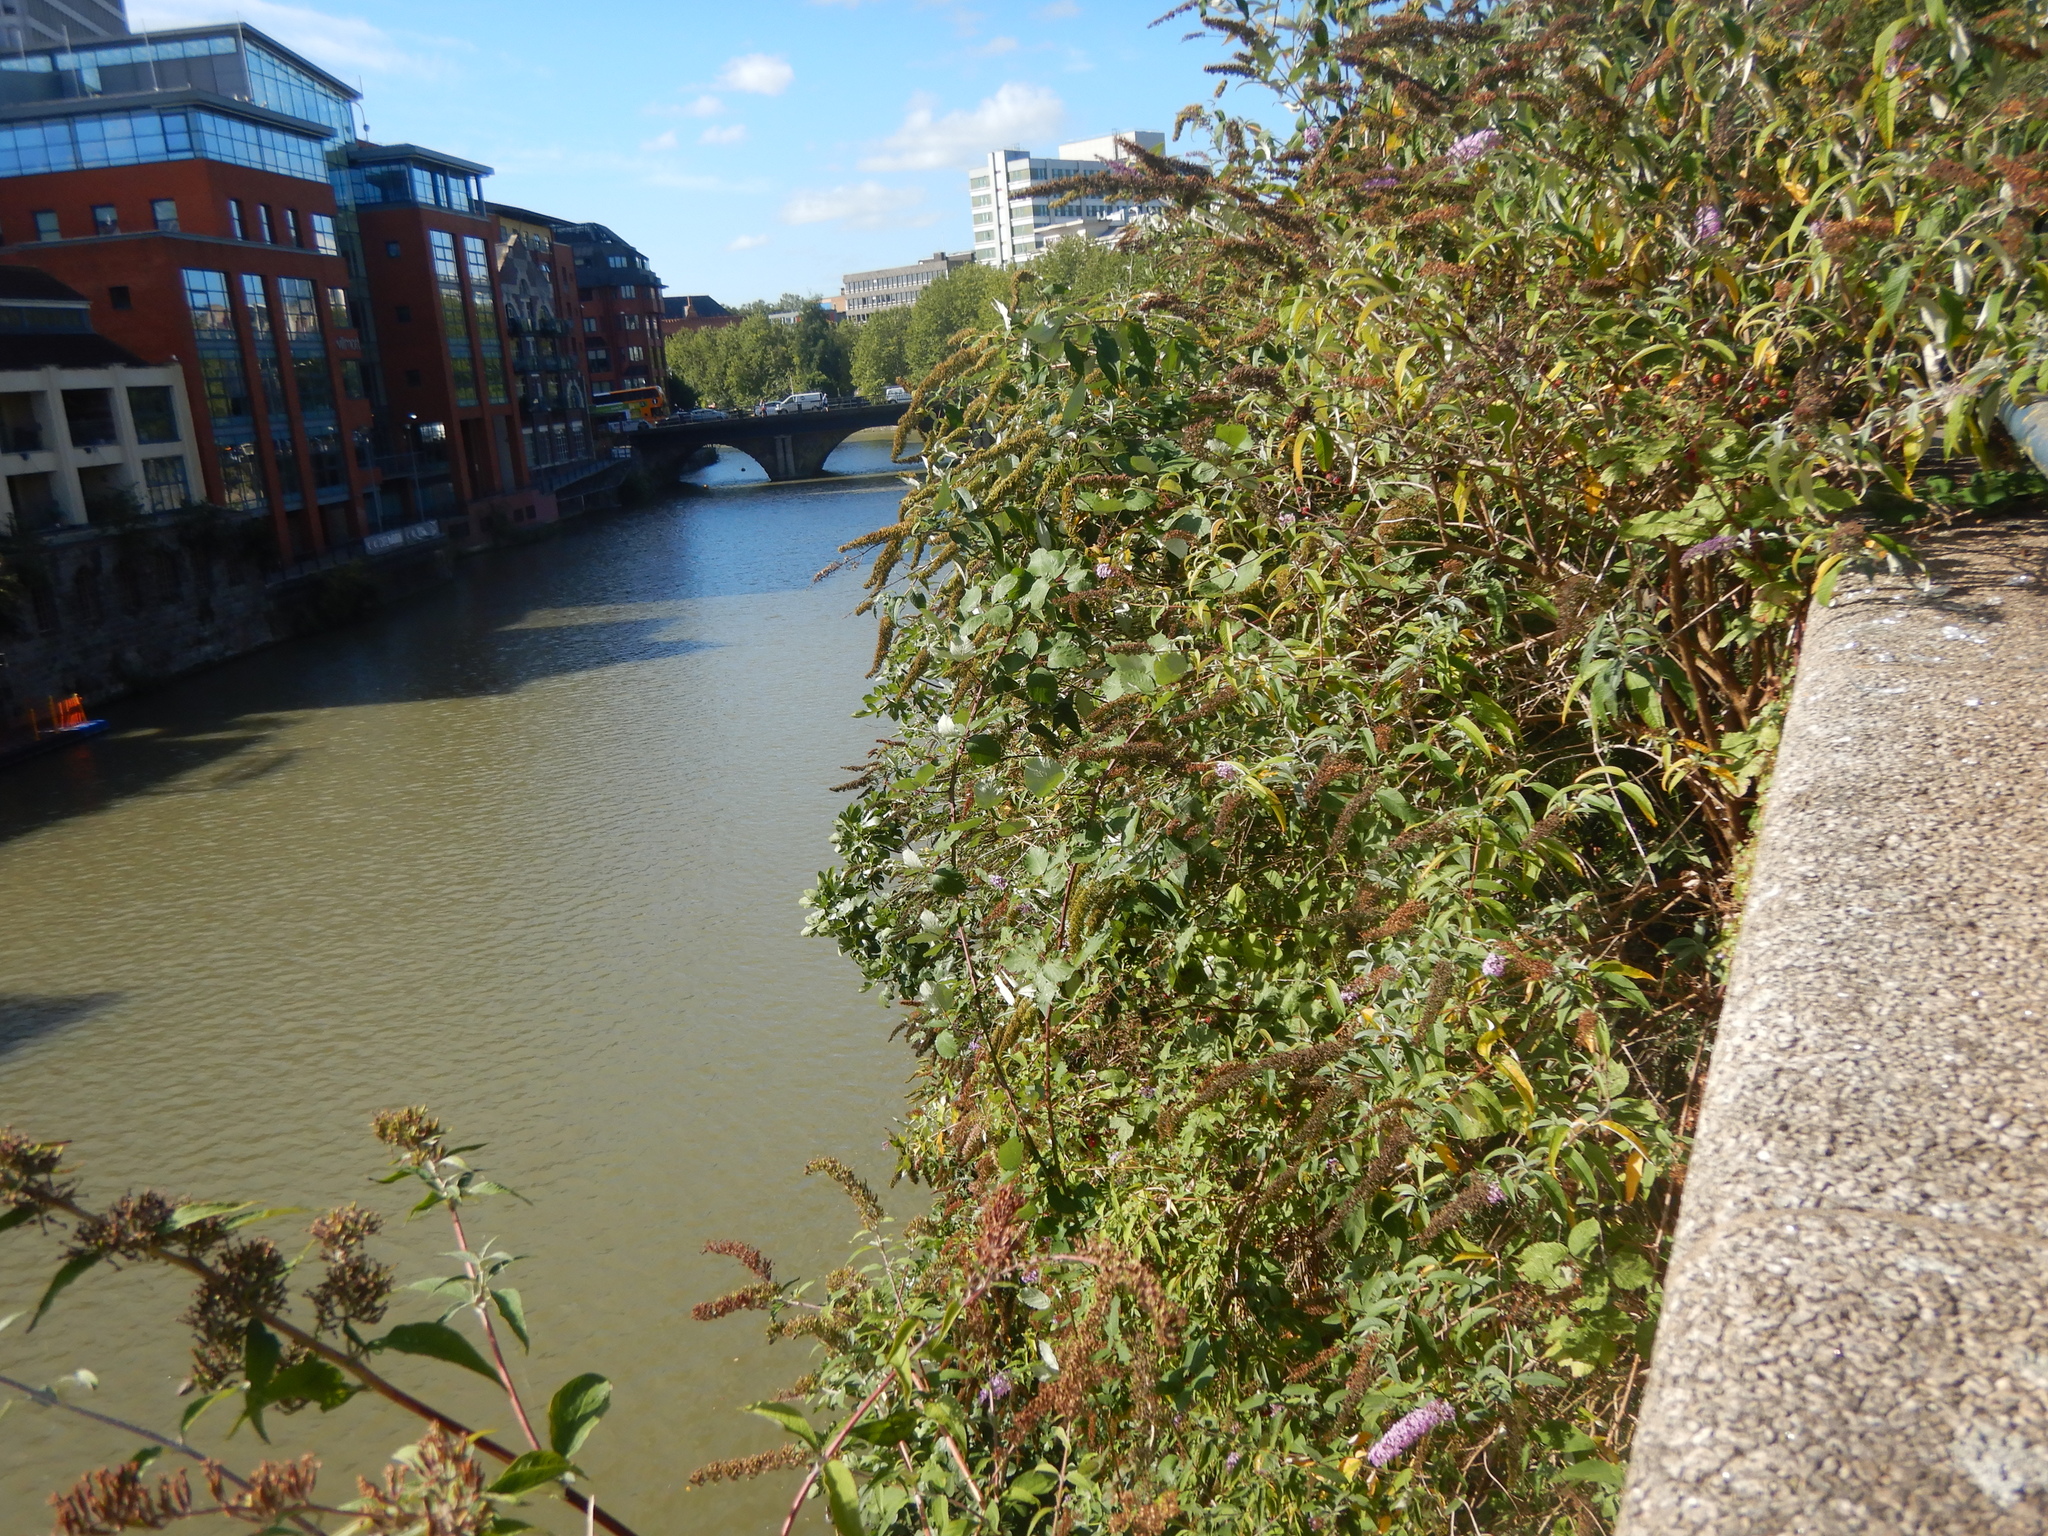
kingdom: Plantae
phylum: Tracheophyta
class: Magnoliopsida
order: Lamiales
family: Scrophulariaceae
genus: Buddleja
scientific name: Buddleja davidii
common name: Butterfly-bush
